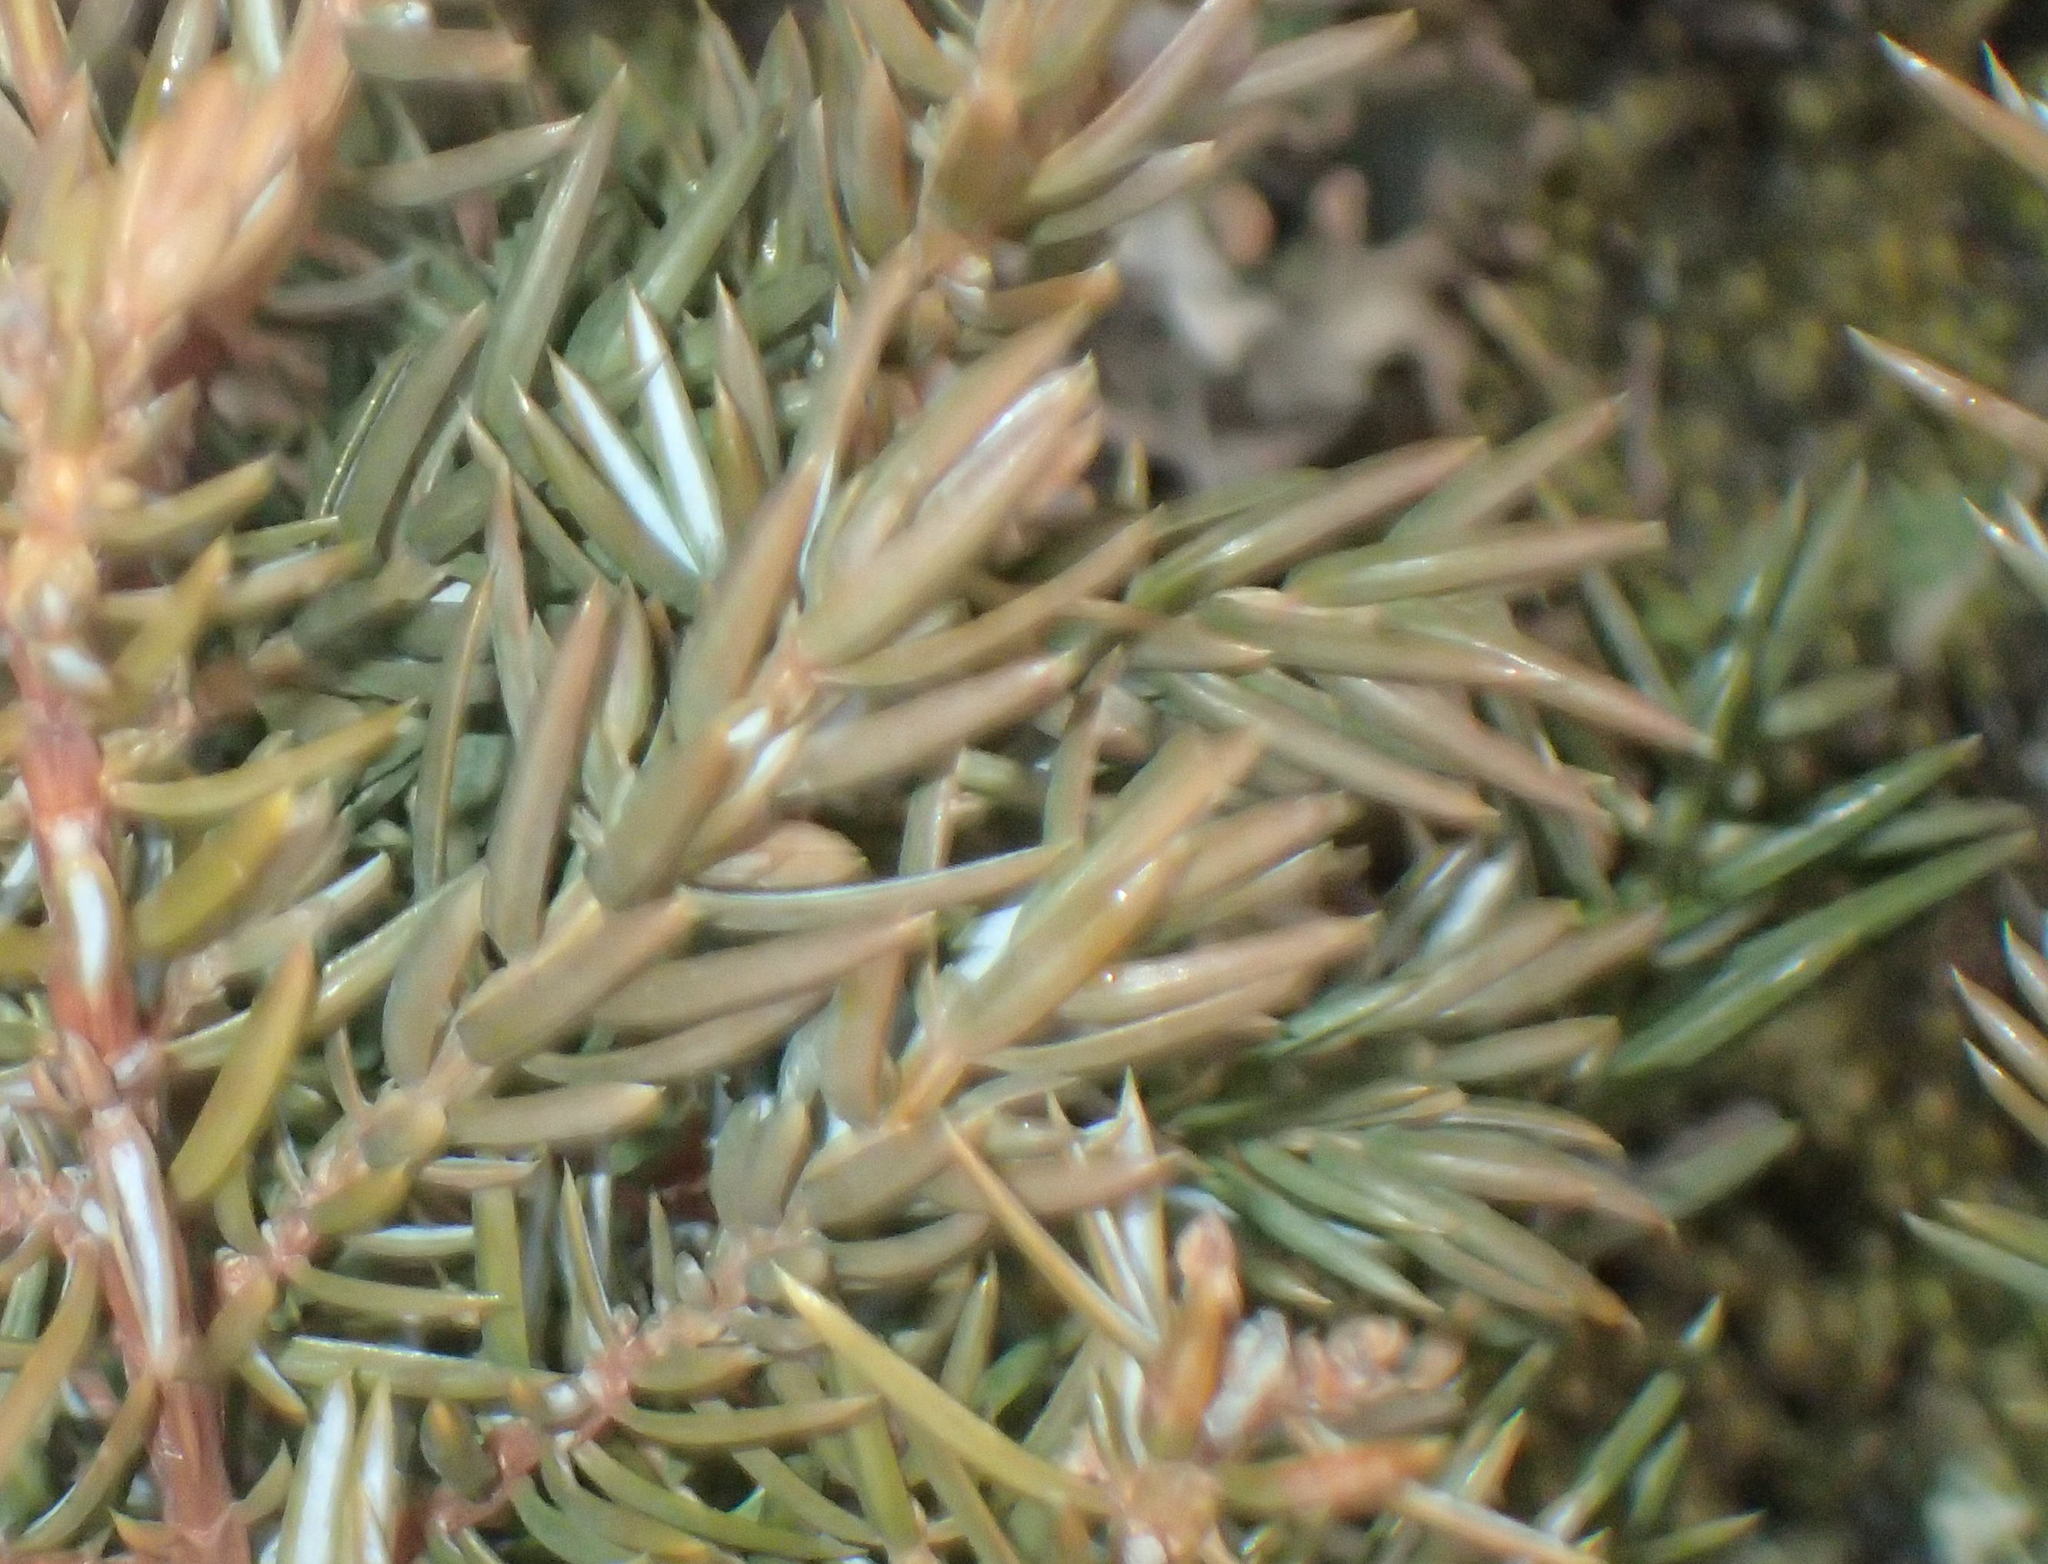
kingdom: Plantae
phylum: Tracheophyta
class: Pinopsida
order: Pinales
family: Cupressaceae
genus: Juniperus
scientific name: Juniperus communis
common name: Common juniper
